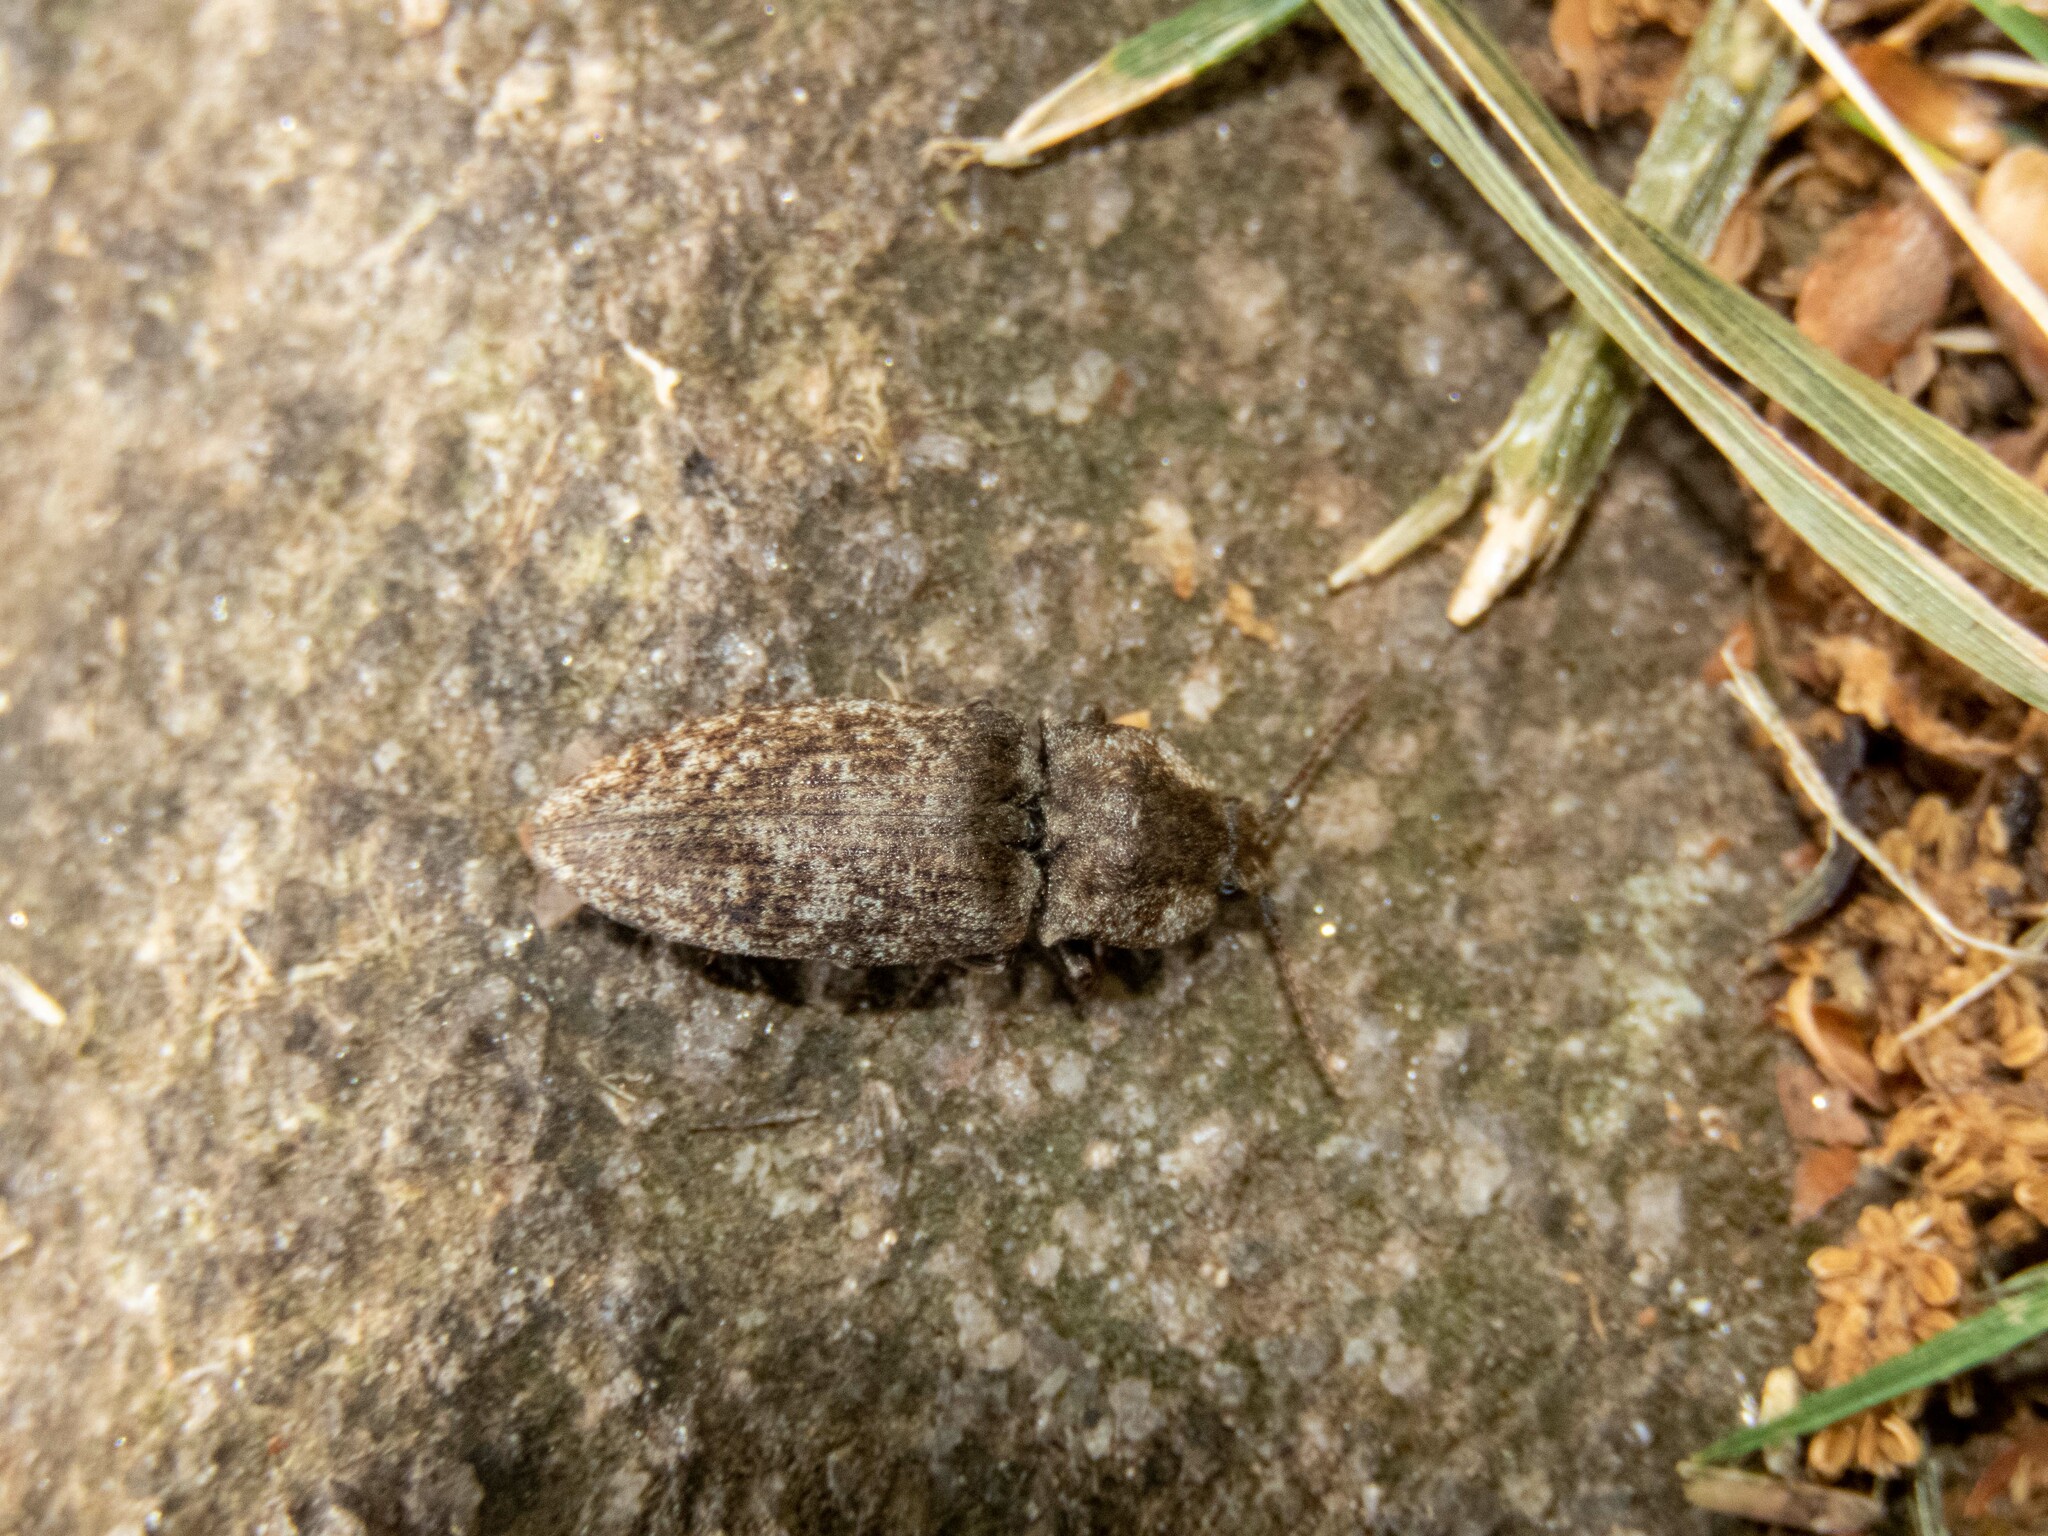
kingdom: Animalia
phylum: Arthropoda
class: Insecta
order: Coleoptera
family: Elateridae
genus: Agrypnus
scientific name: Agrypnus murinus
